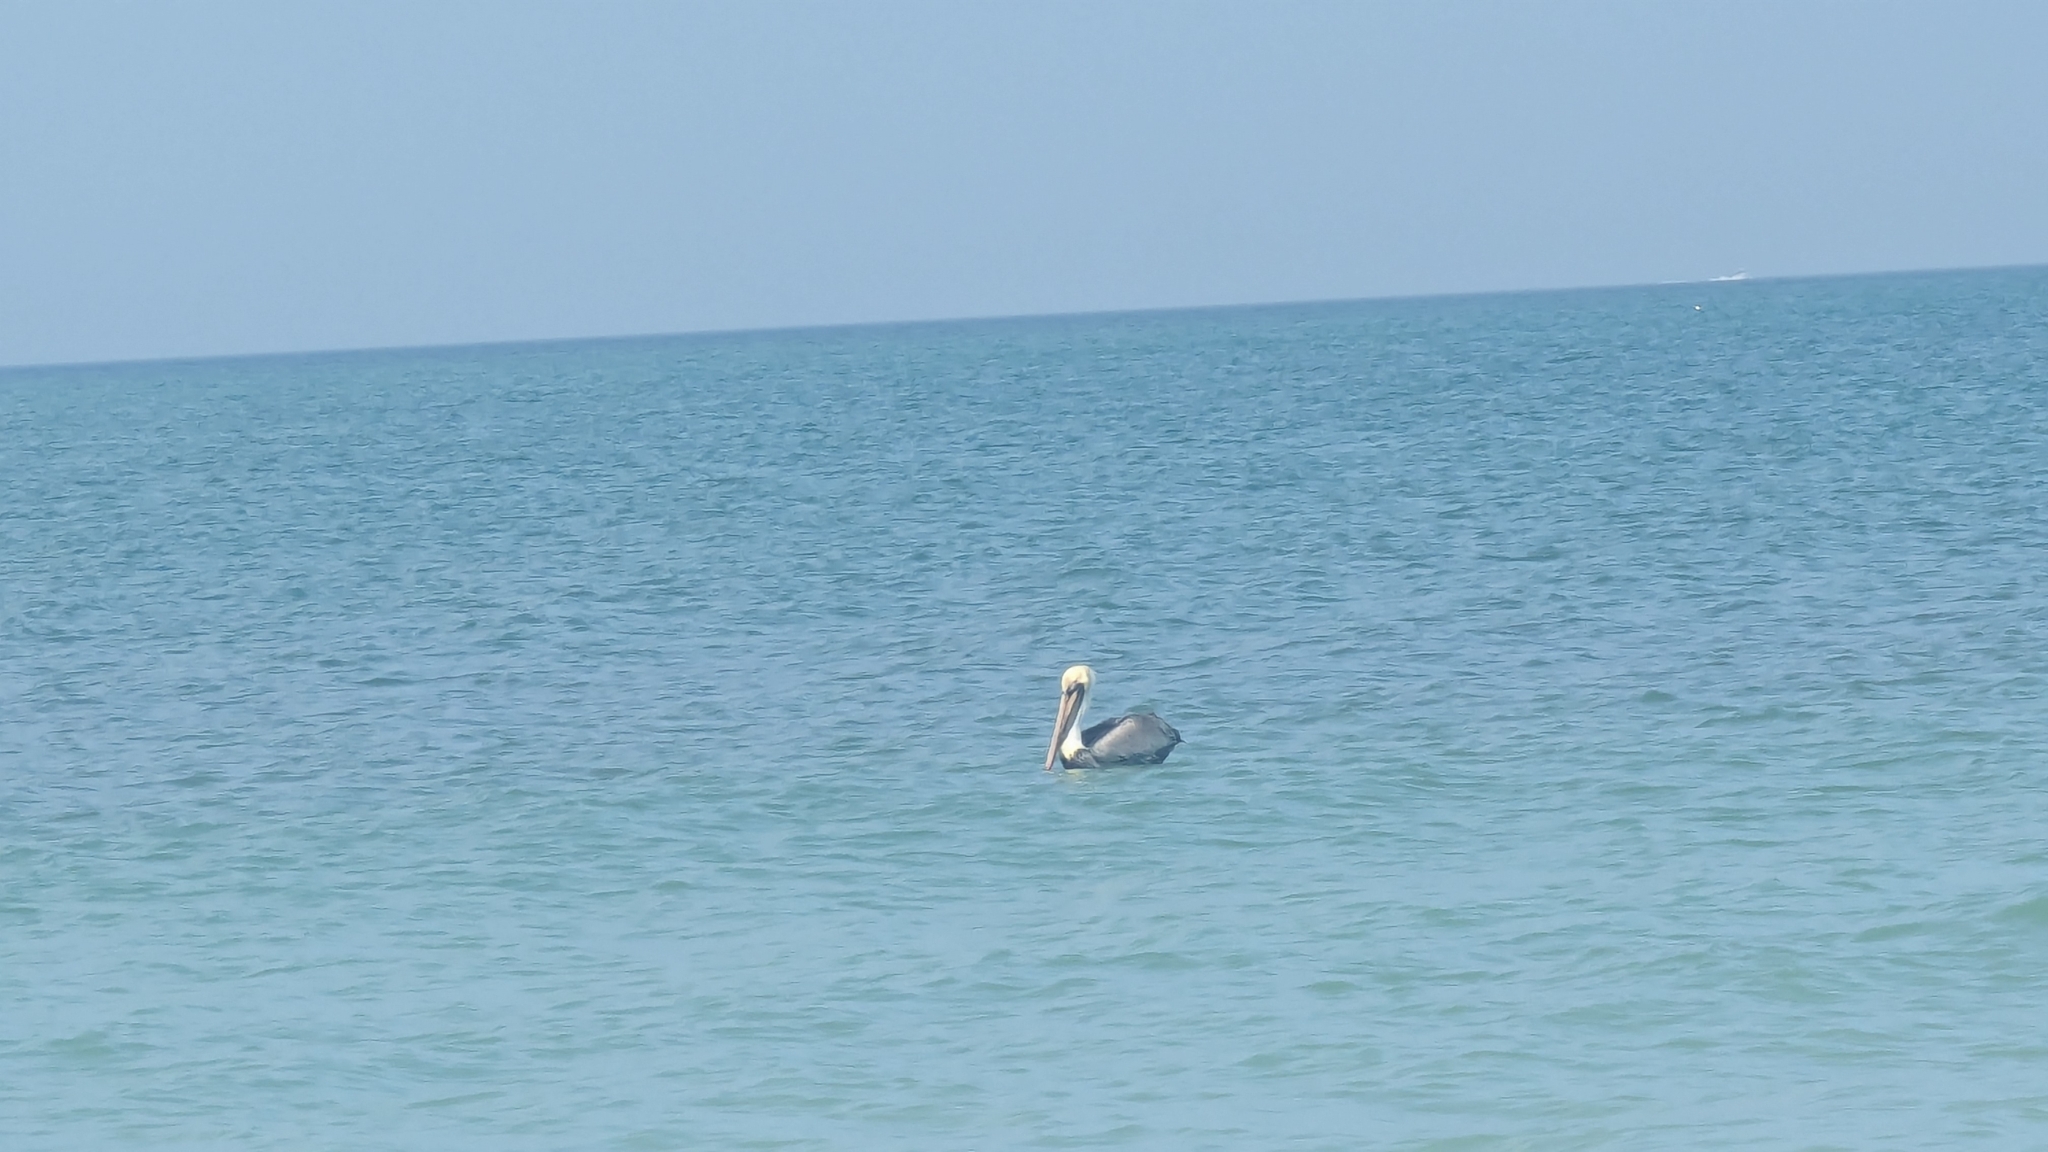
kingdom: Animalia
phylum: Chordata
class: Aves
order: Pelecaniformes
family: Pelecanidae
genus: Pelecanus
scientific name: Pelecanus occidentalis
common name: Brown pelican
